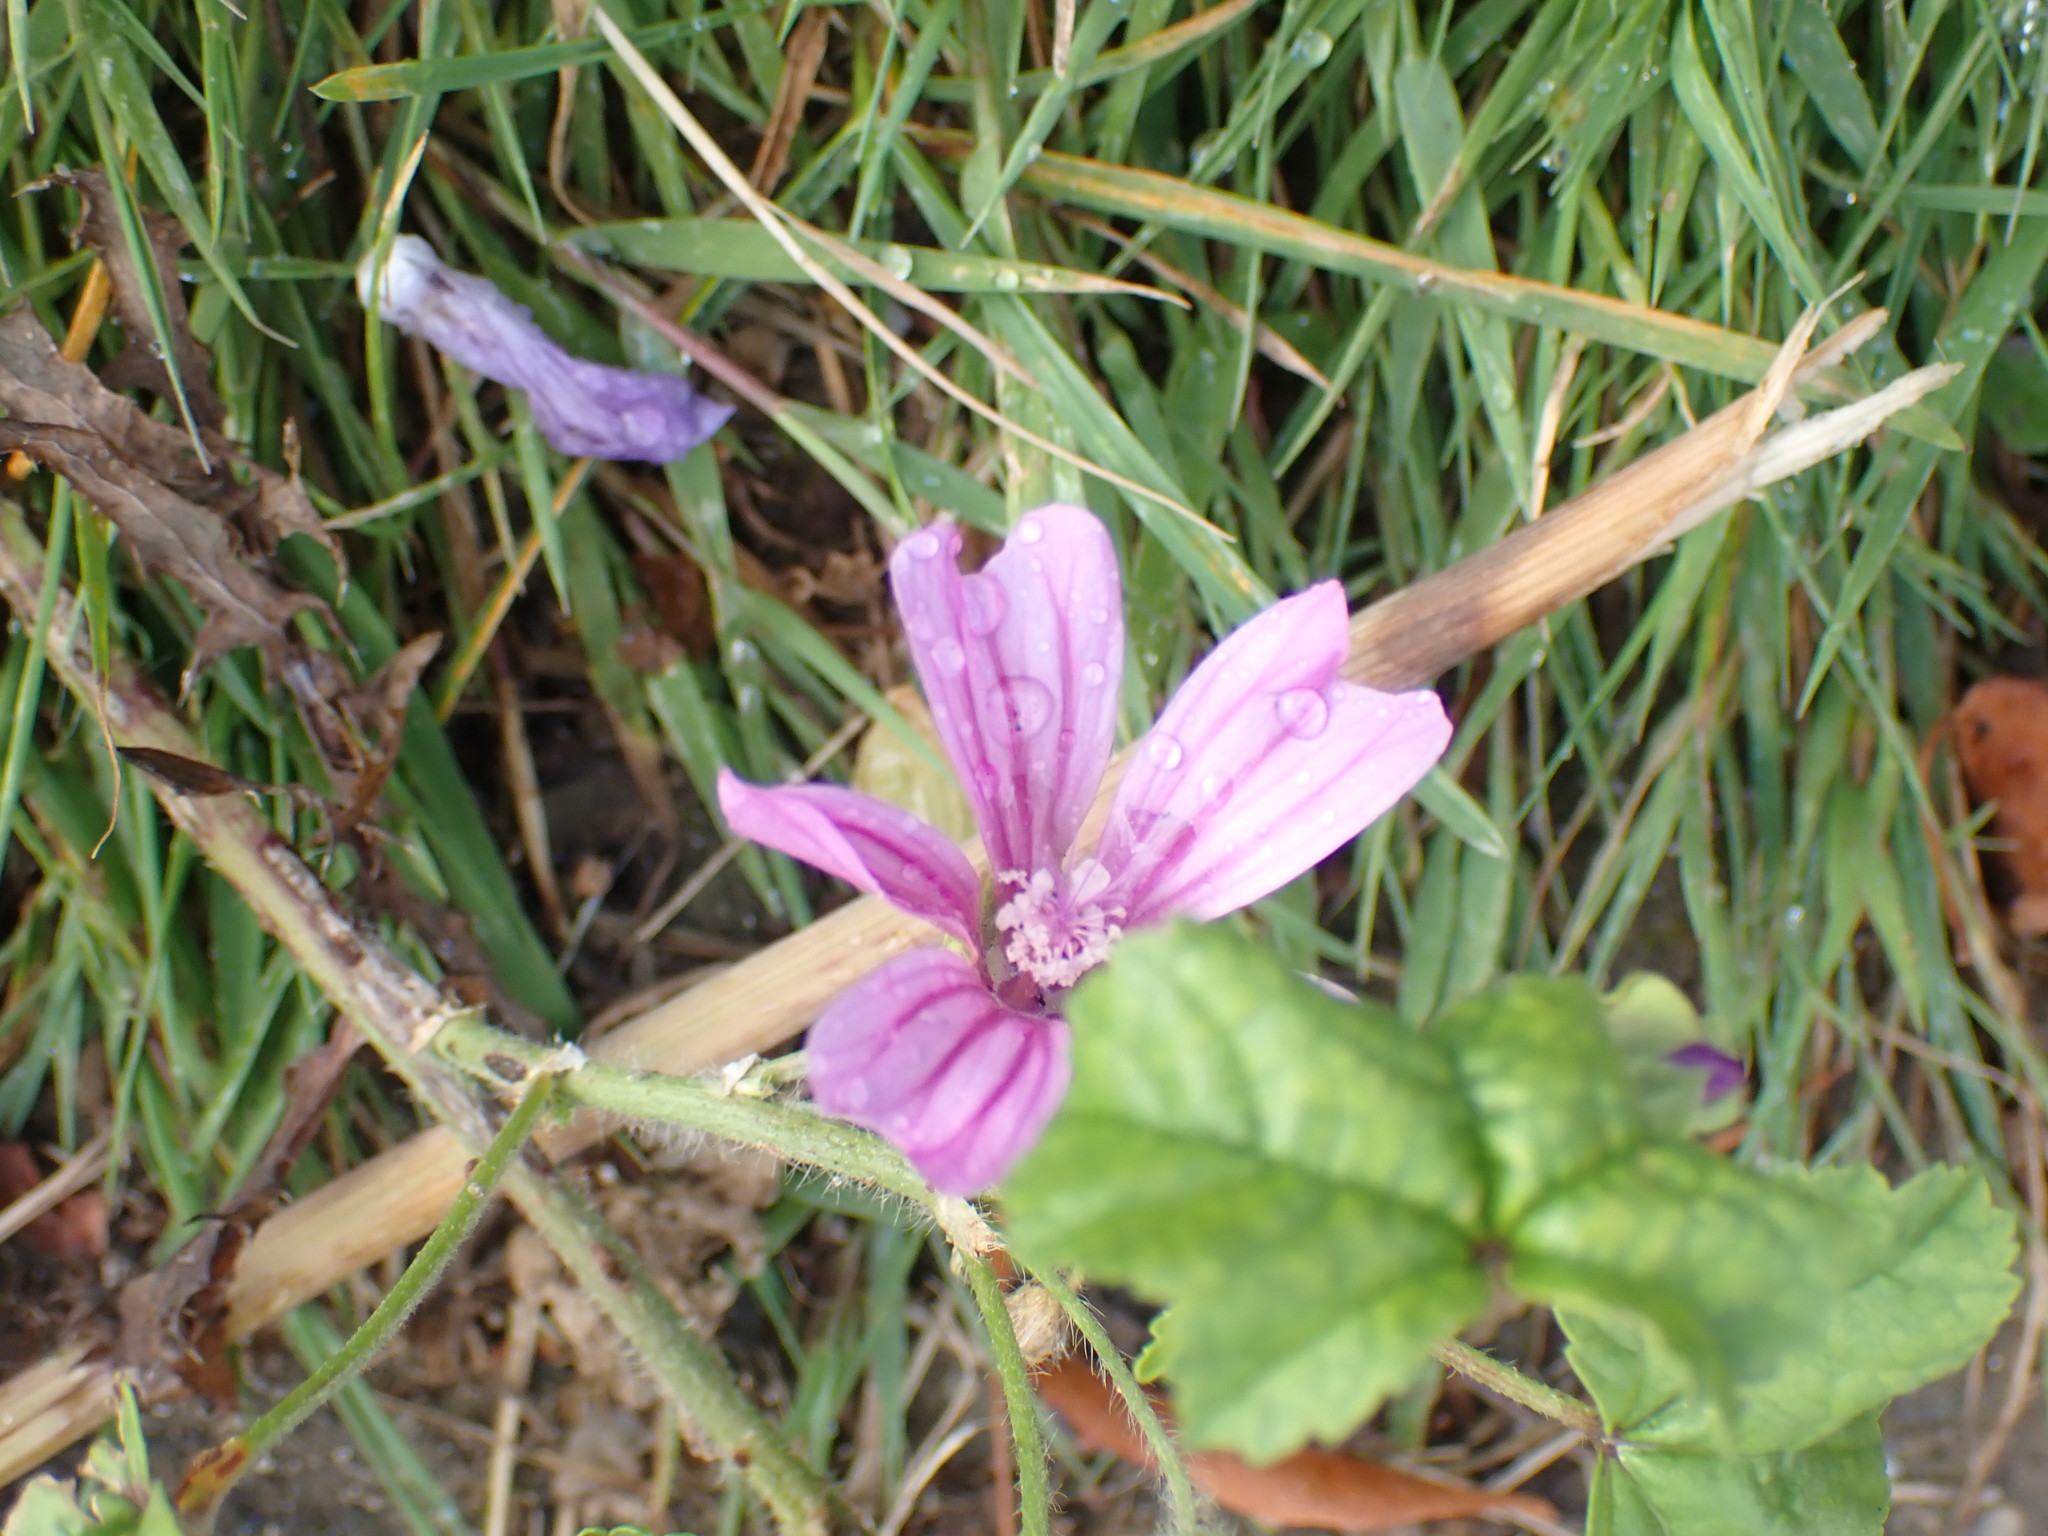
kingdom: Plantae
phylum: Tracheophyta
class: Magnoliopsida
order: Malvales
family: Malvaceae
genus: Malva
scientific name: Malva sylvestris
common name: Common mallow
